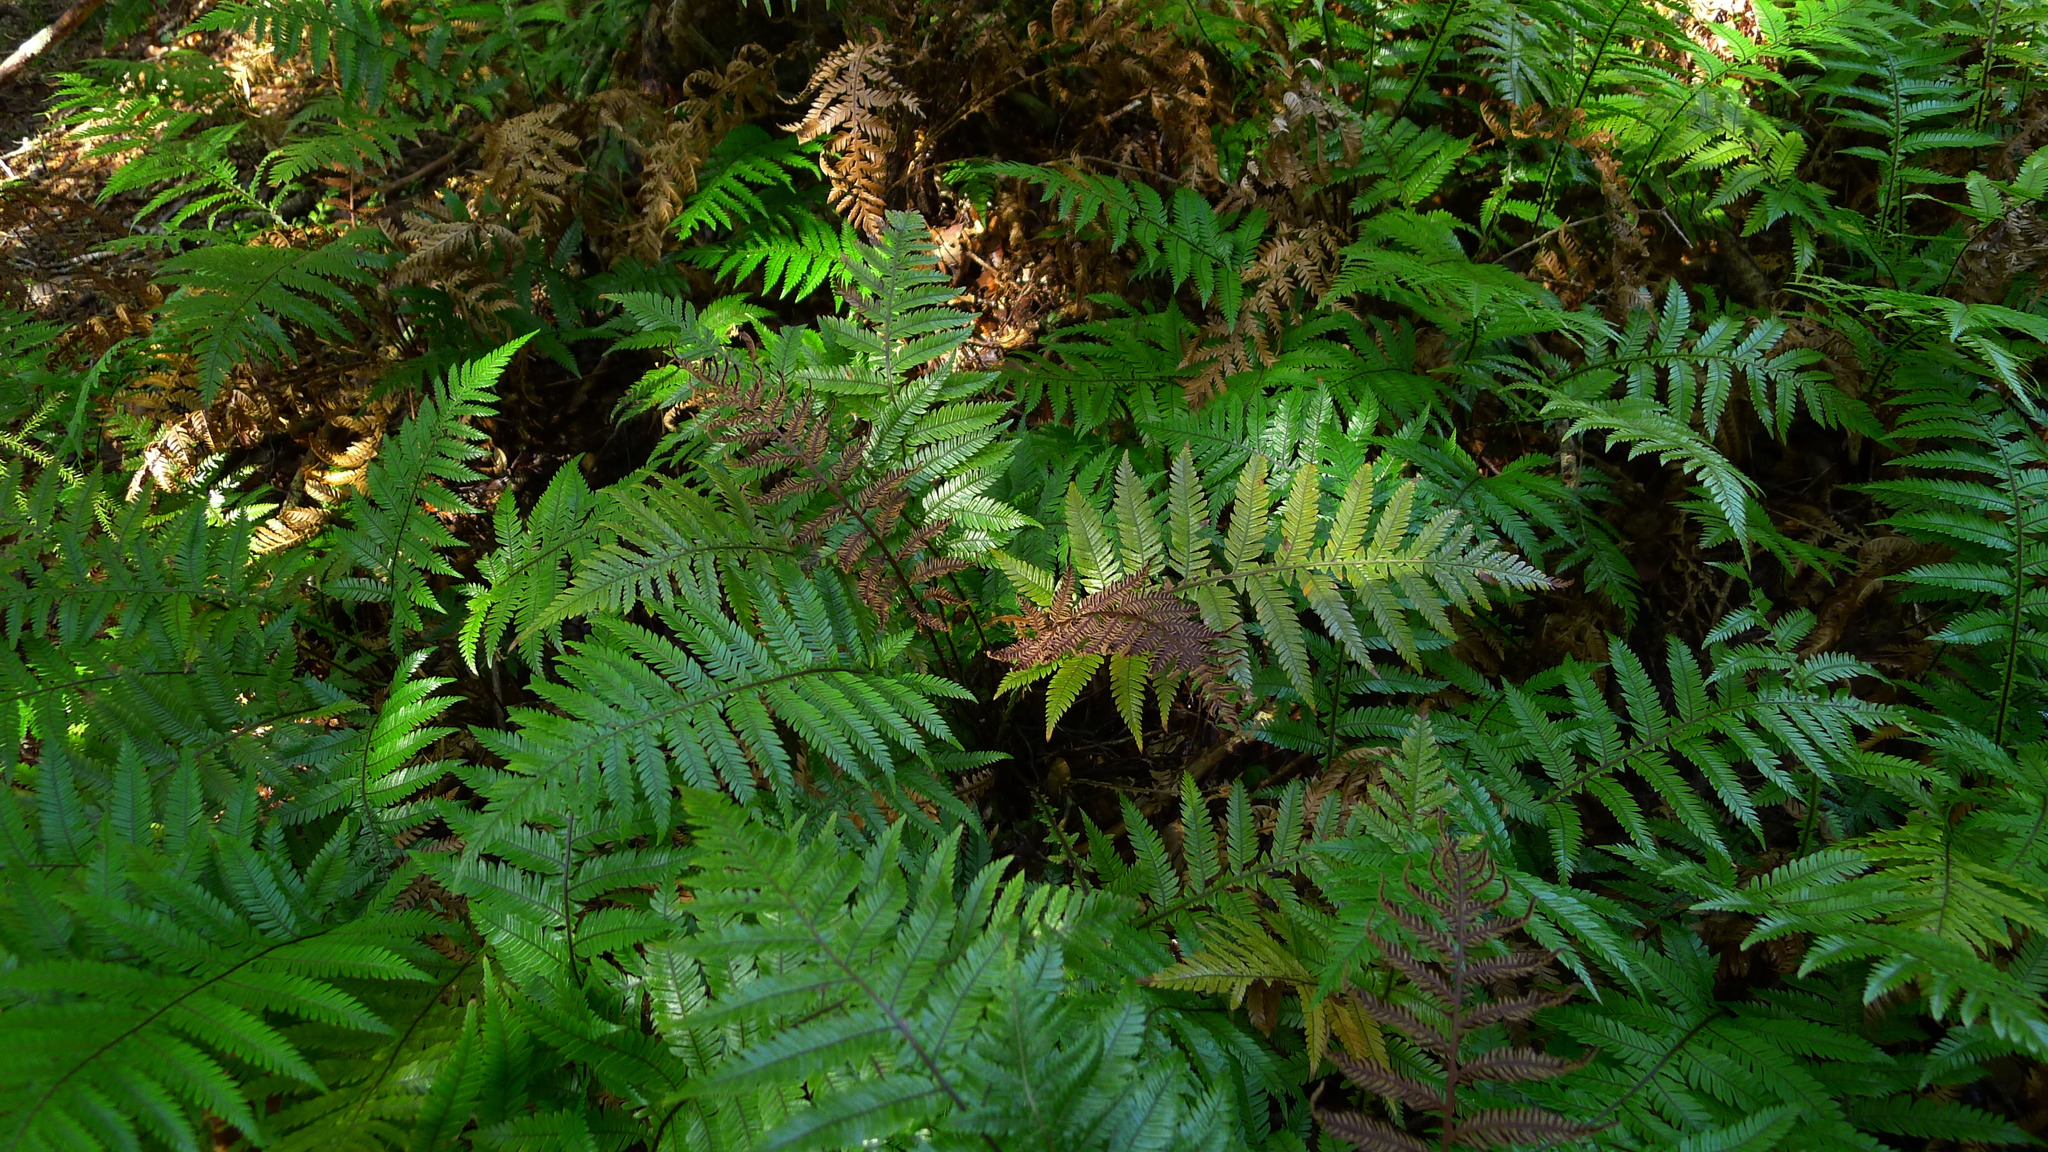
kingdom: Plantae
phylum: Tracheophyta
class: Polypodiopsida
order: Polypodiales
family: Blechnaceae
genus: Diploblechnum
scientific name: Diploblechnum fraseri
